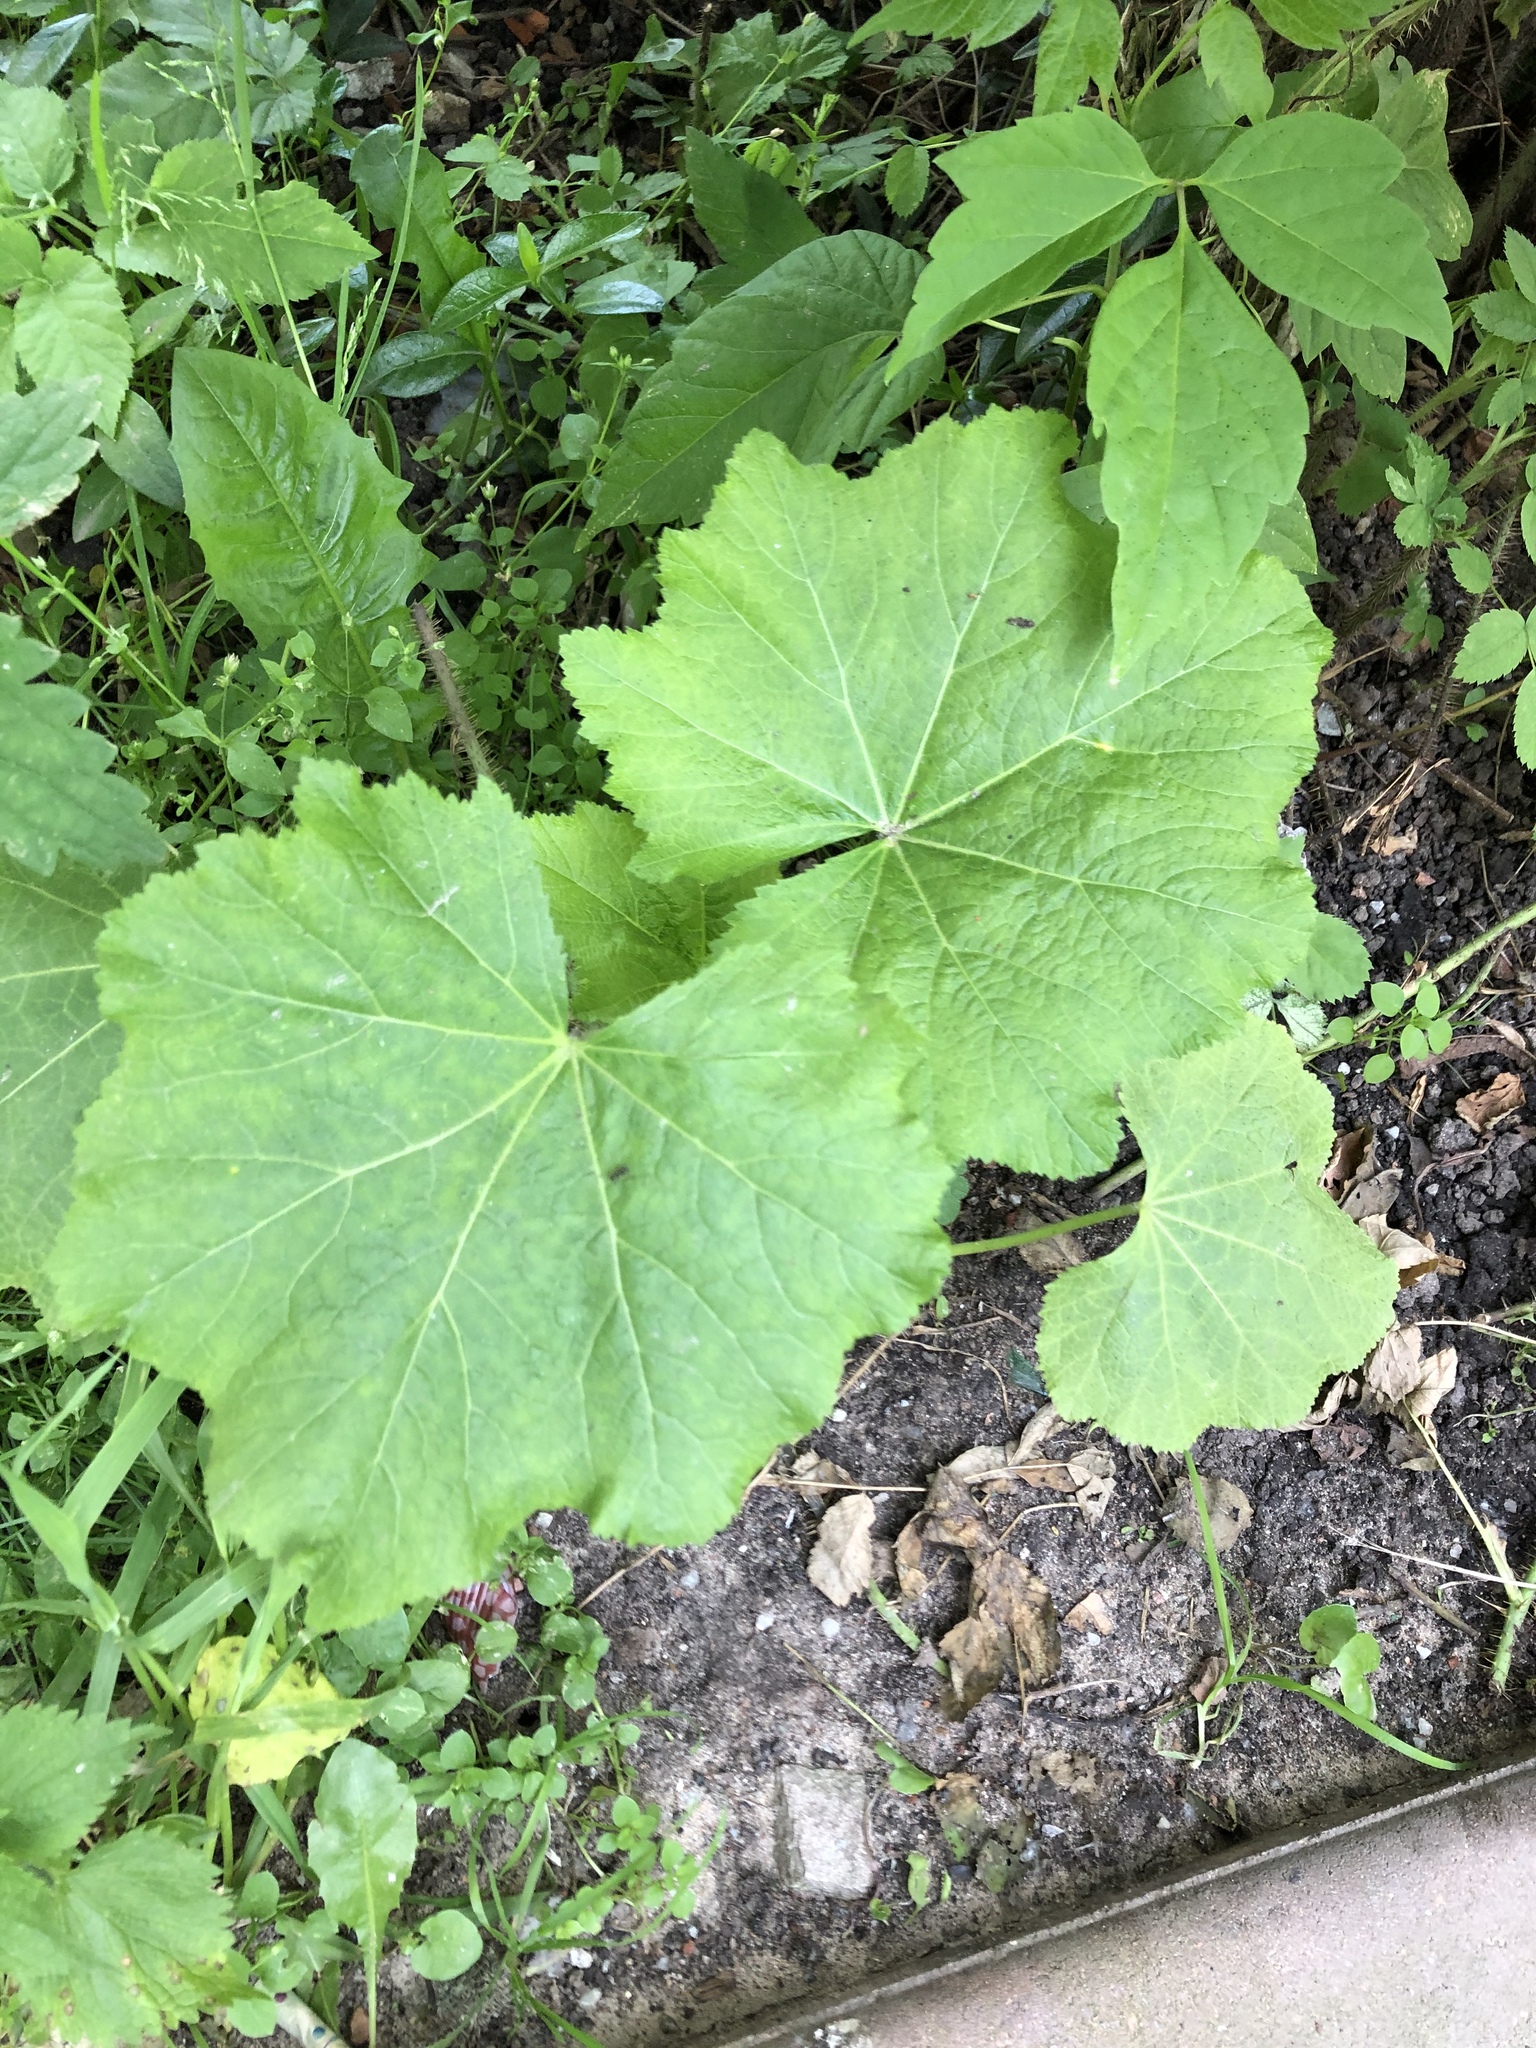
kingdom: Plantae
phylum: Tracheophyta
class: Magnoliopsida
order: Asterales
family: Asteraceae
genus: Tussilago
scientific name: Tussilago farfara
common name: Coltsfoot
